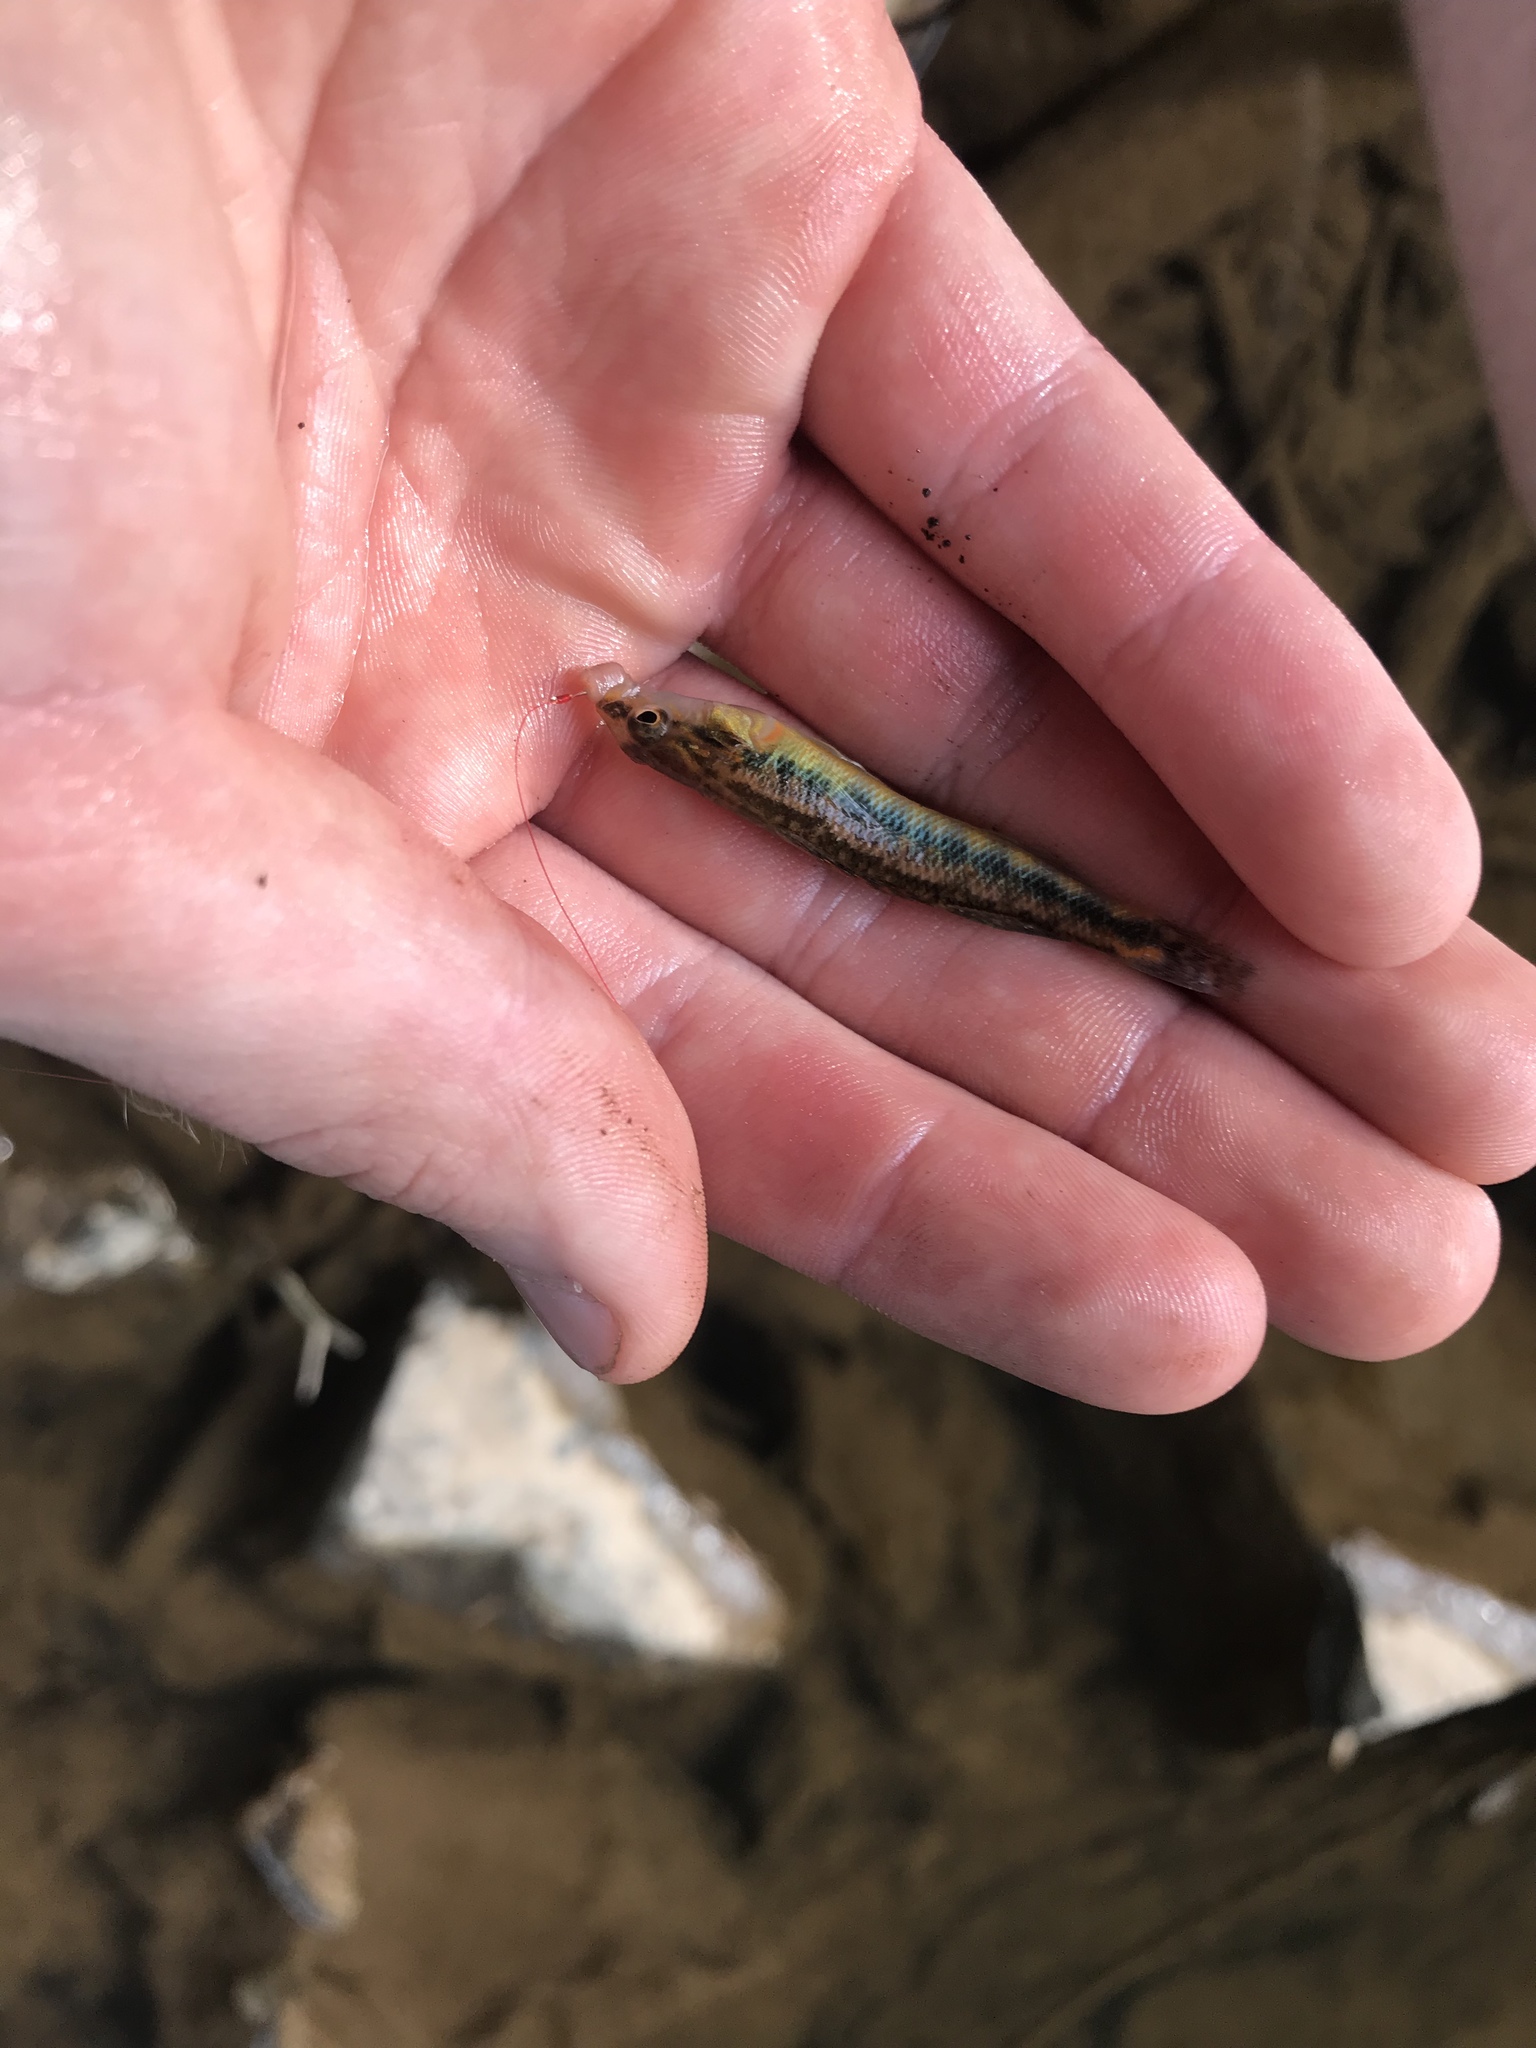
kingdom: Animalia
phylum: Chordata
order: Perciformes
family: Percidae
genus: Percina
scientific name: Percina roanoka
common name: Roanoke darter
